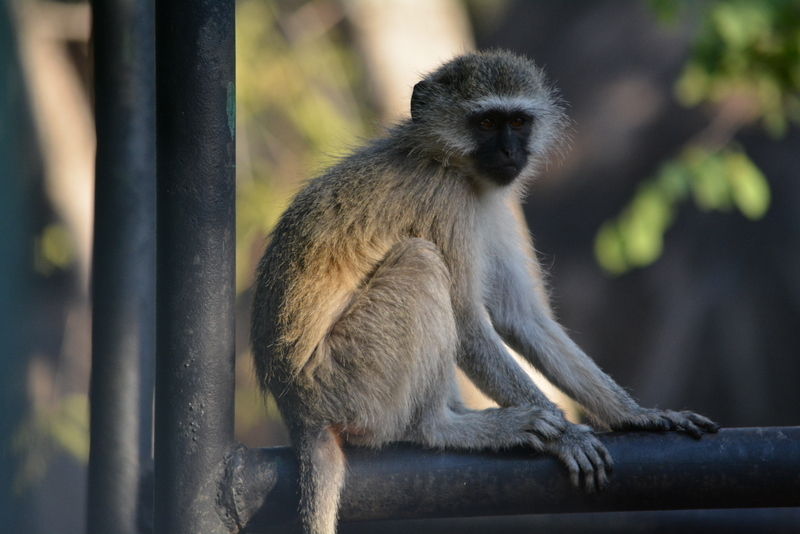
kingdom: Animalia
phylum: Chordata
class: Mammalia
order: Primates
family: Cercopithecidae
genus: Chlorocebus
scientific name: Chlorocebus pygerythrus
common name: Vervet monkey
